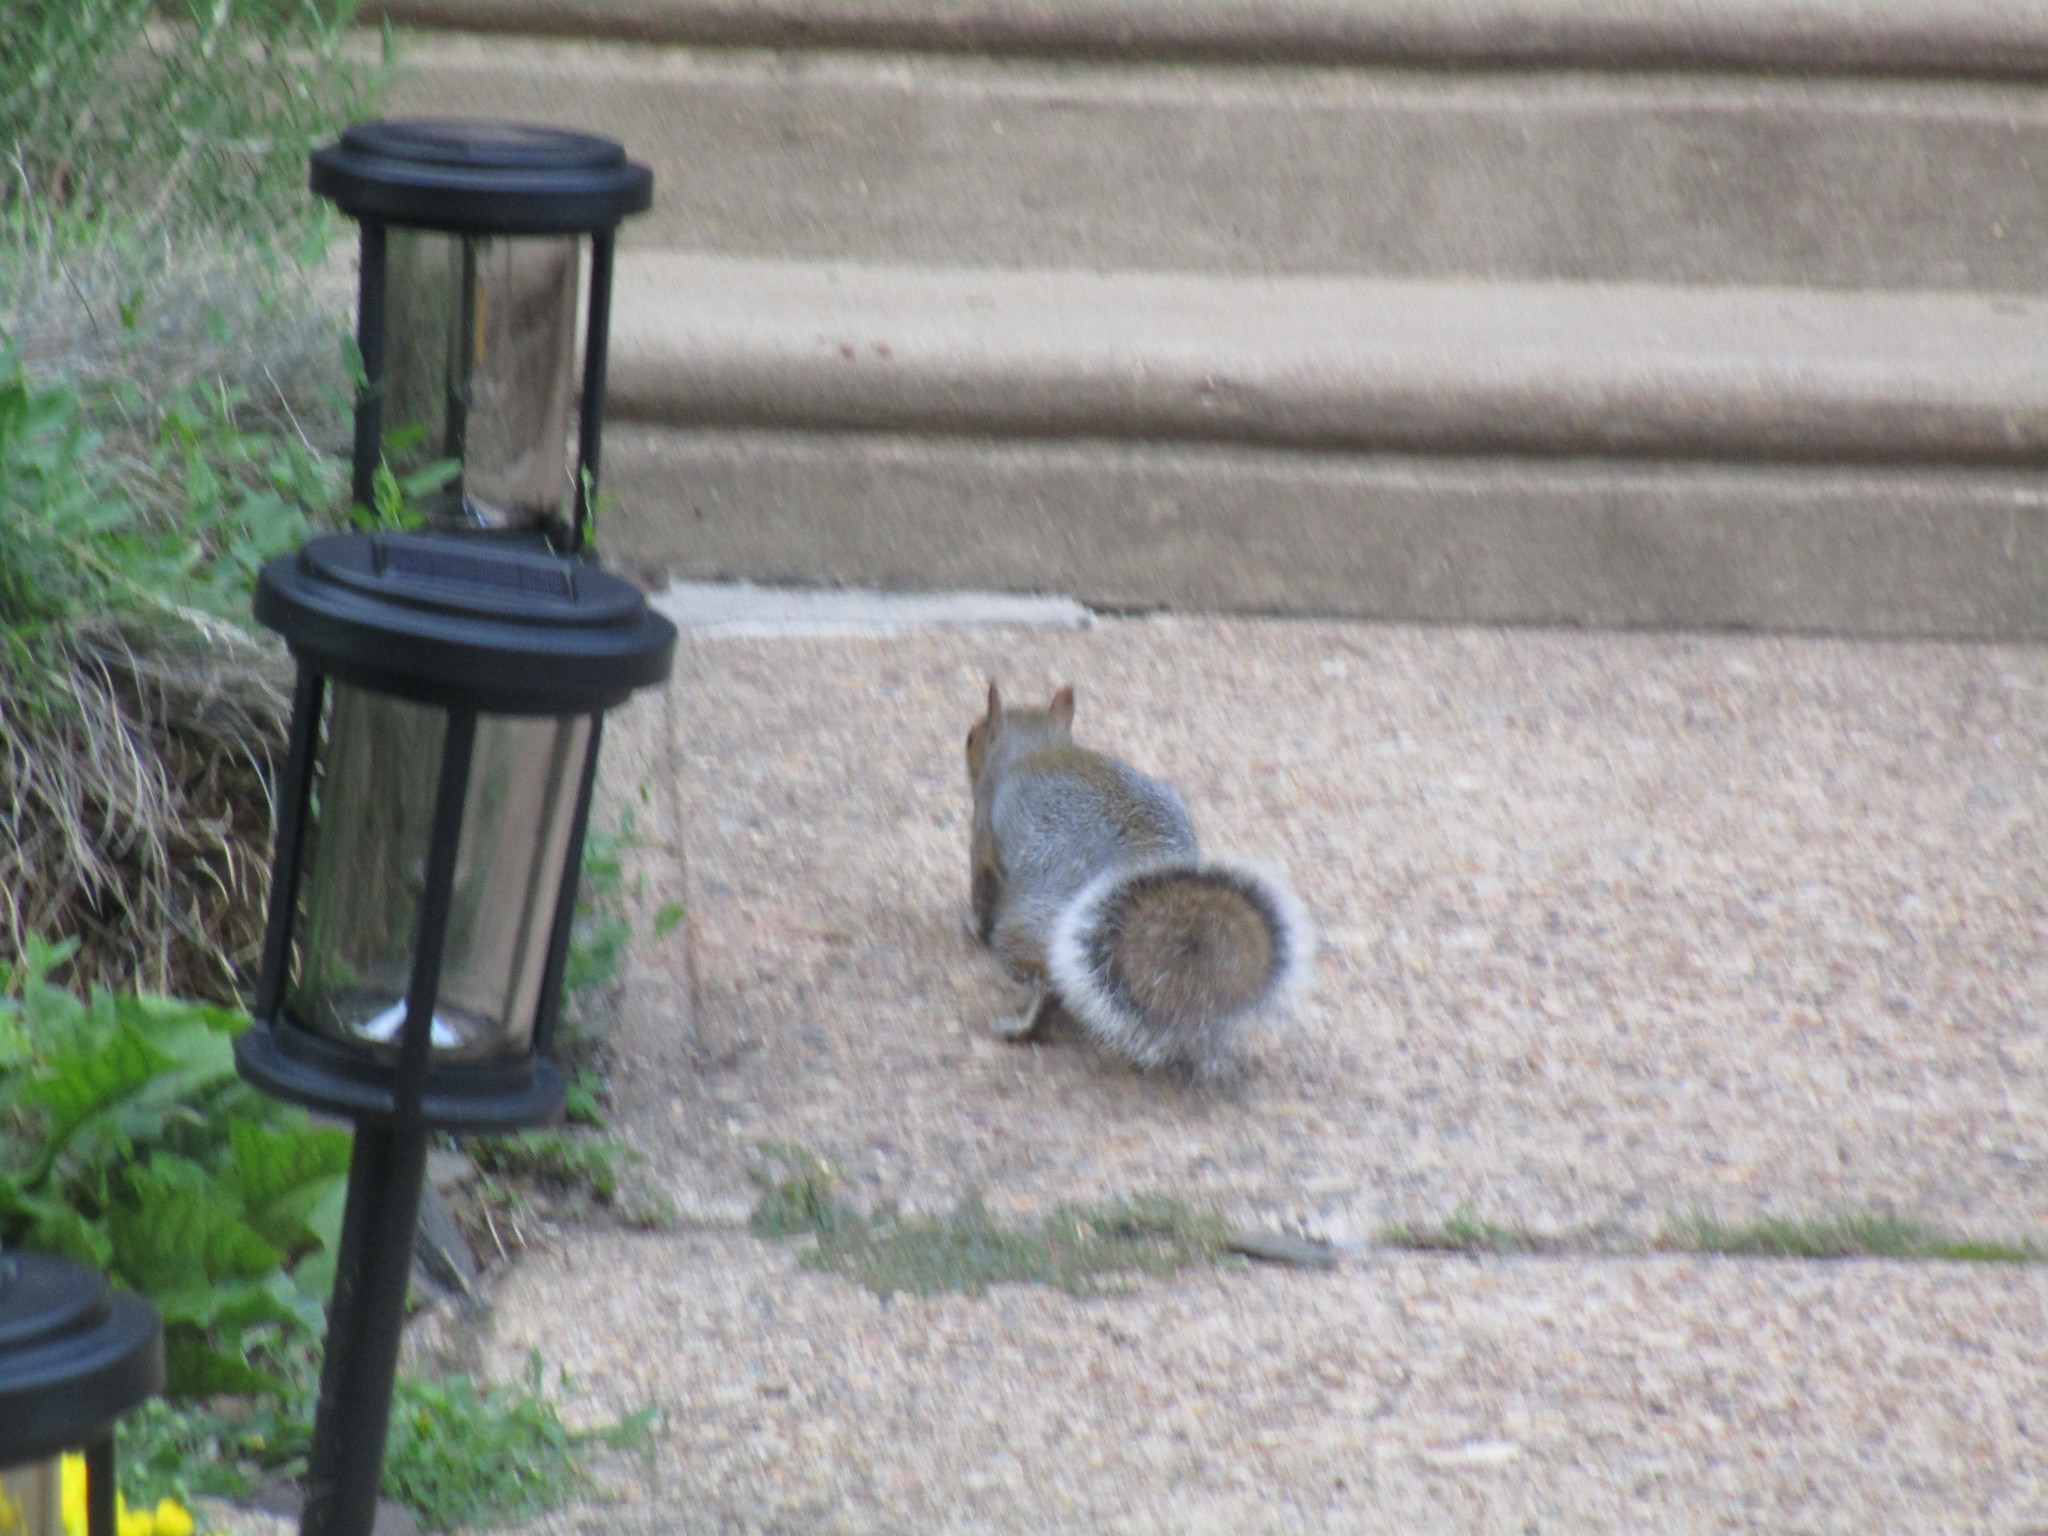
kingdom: Animalia
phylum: Chordata
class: Mammalia
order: Rodentia
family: Sciuridae
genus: Sciurus
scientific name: Sciurus carolinensis
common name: Eastern gray squirrel
